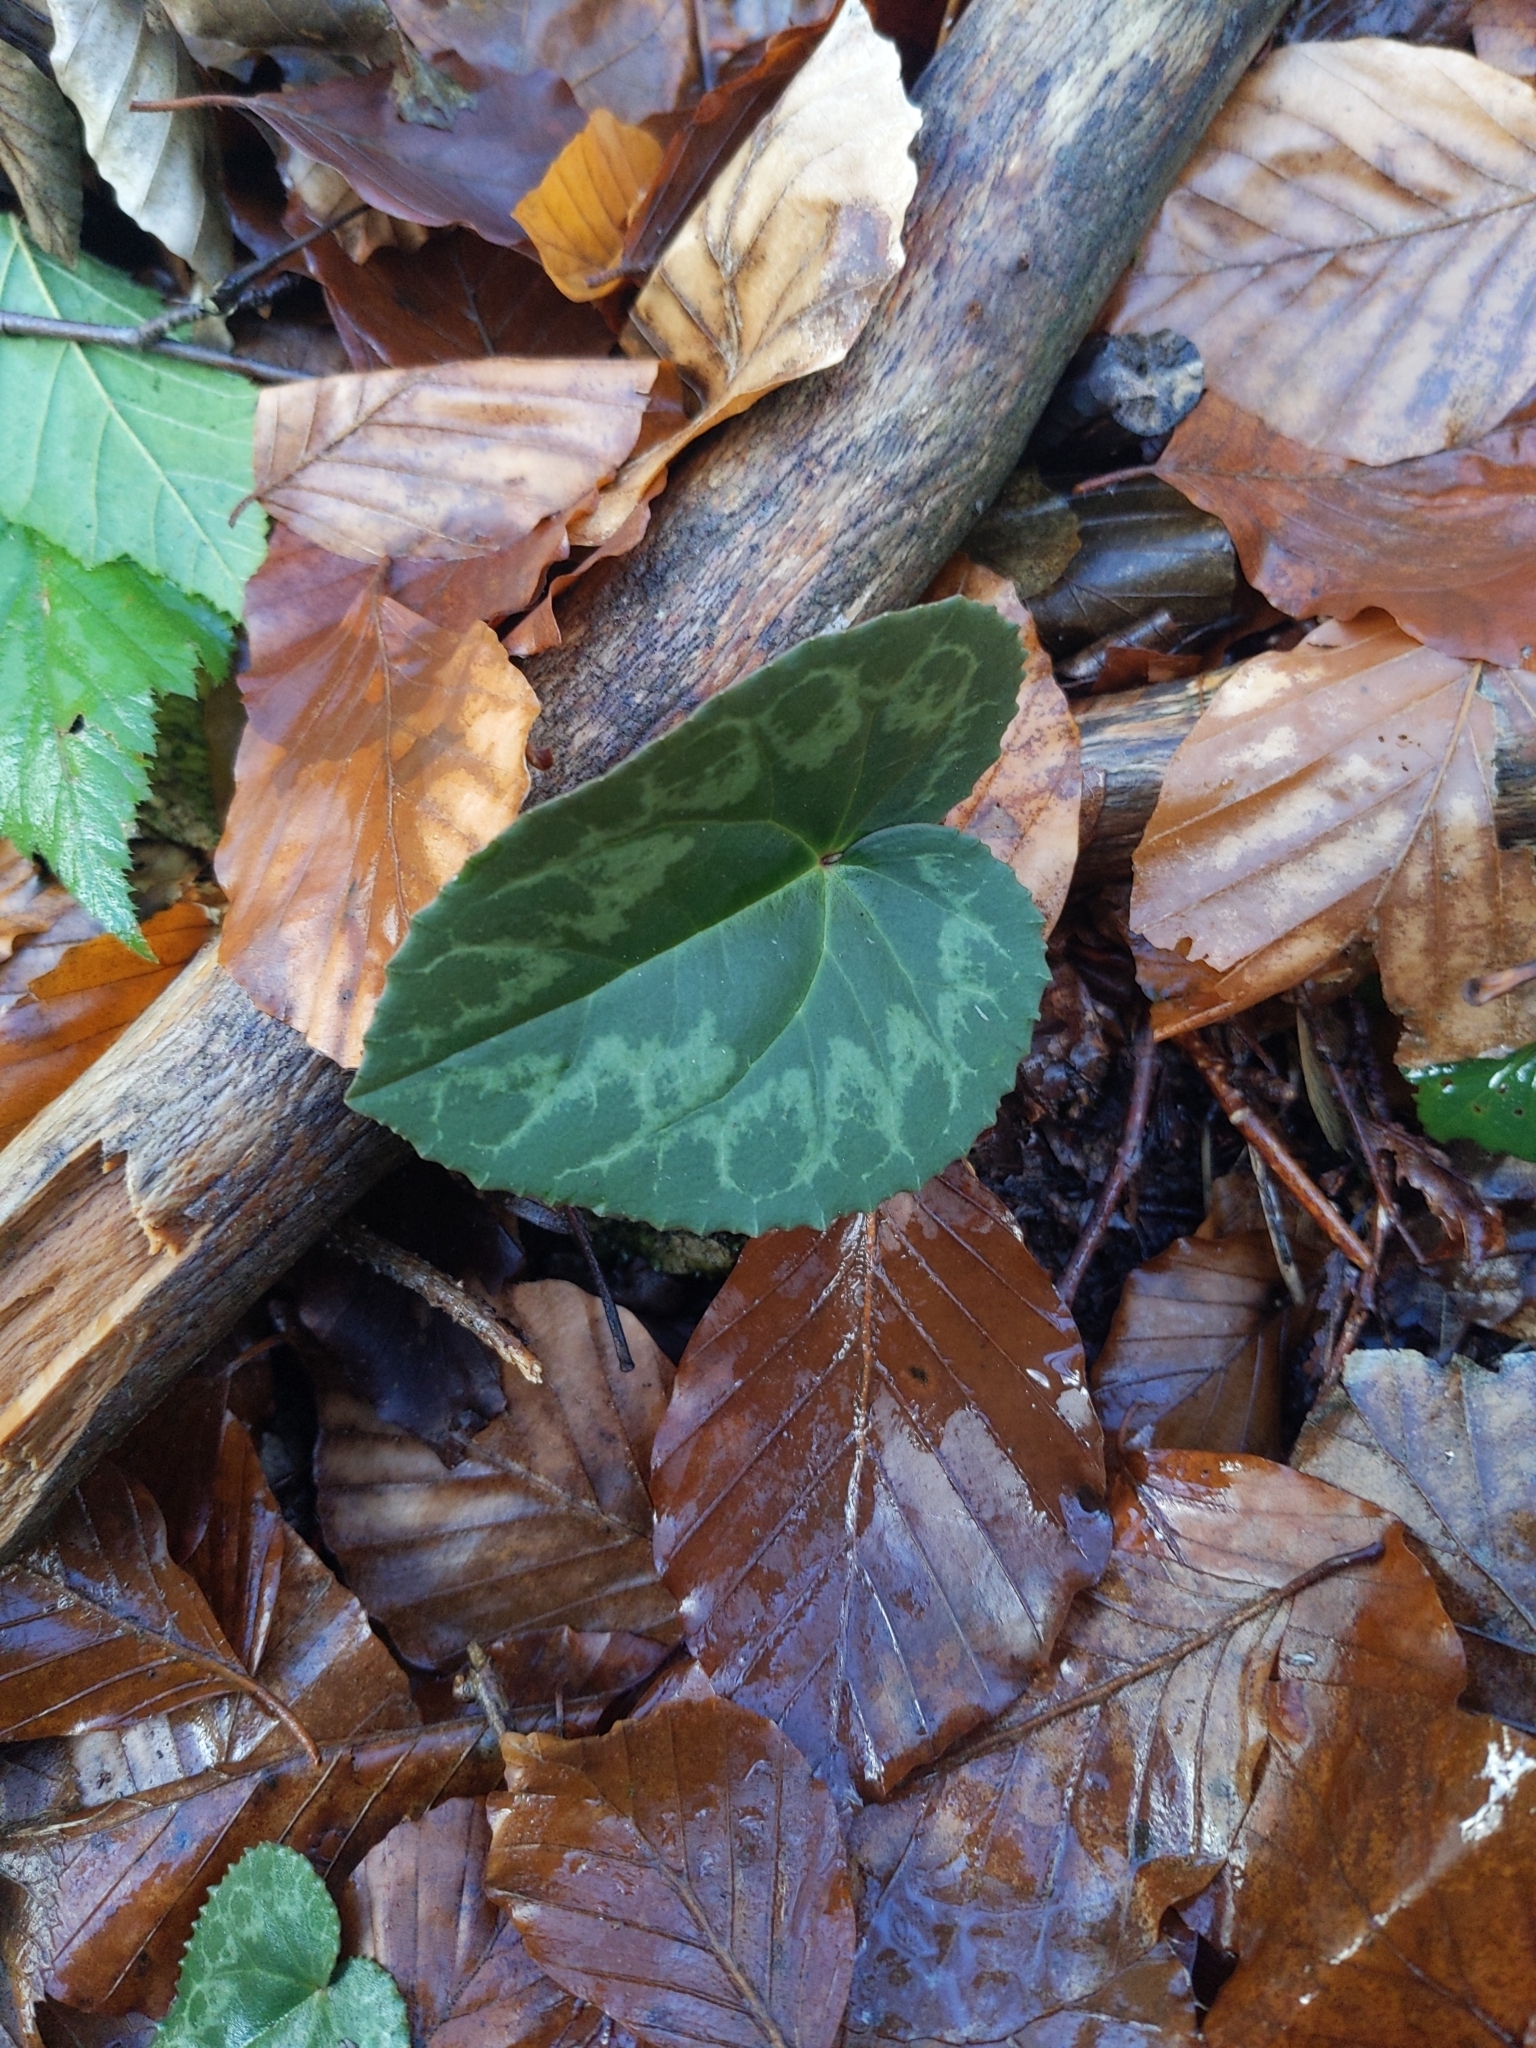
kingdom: Plantae
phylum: Tracheophyta
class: Magnoliopsida
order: Ericales
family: Primulaceae
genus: Cyclamen
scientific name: Cyclamen purpurascens
